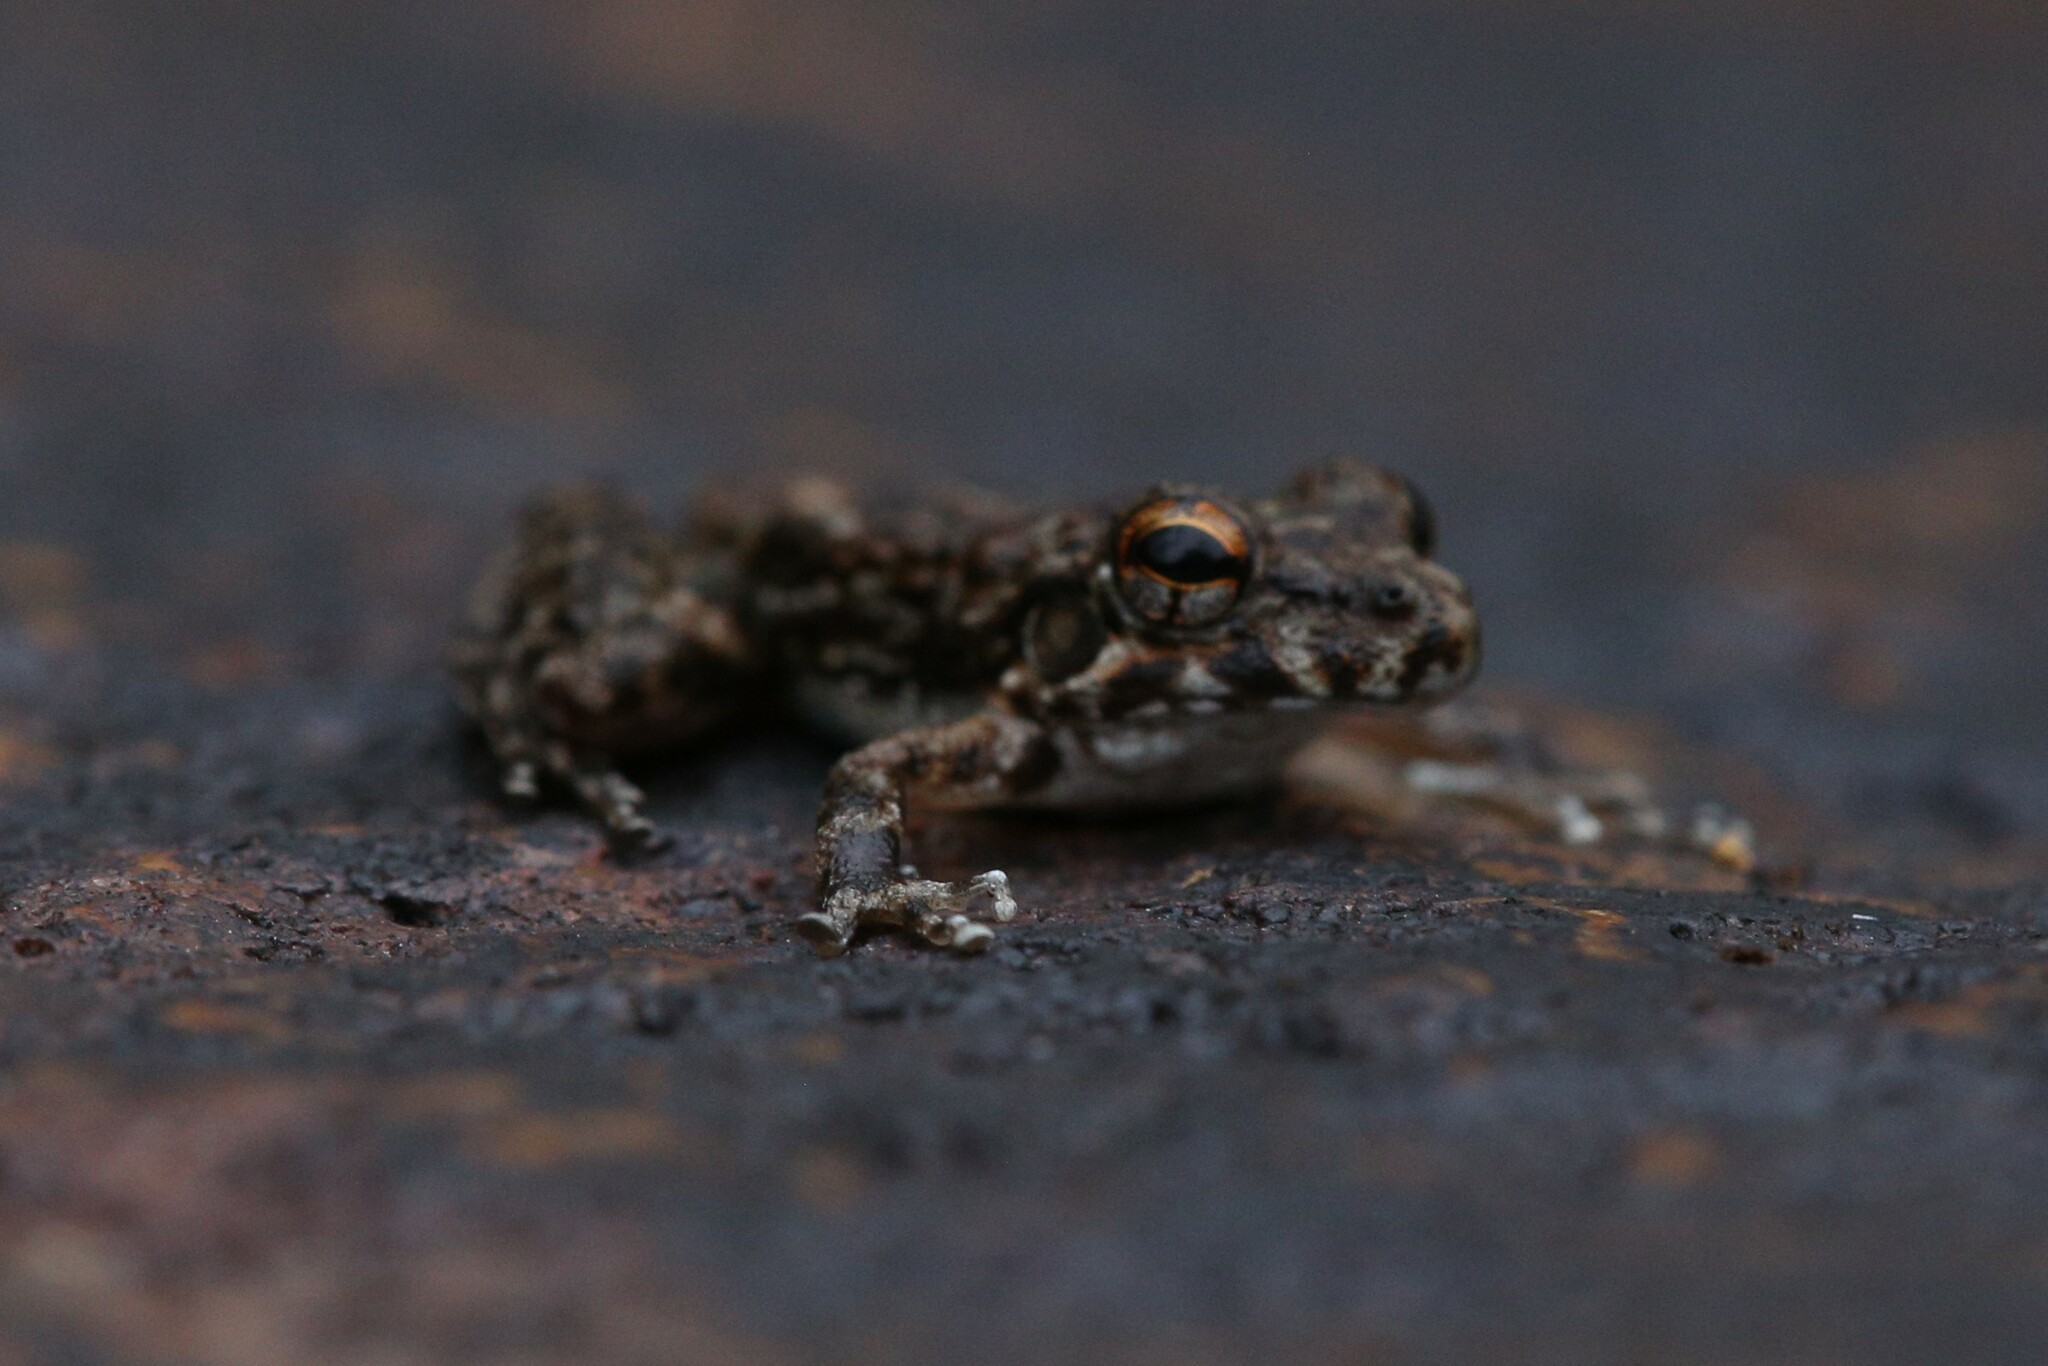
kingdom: Animalia
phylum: Chordata
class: Amphibia
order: Anura
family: Pelodryadidae
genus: Litoria
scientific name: Litoria meiriana
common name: Rockhole frog
